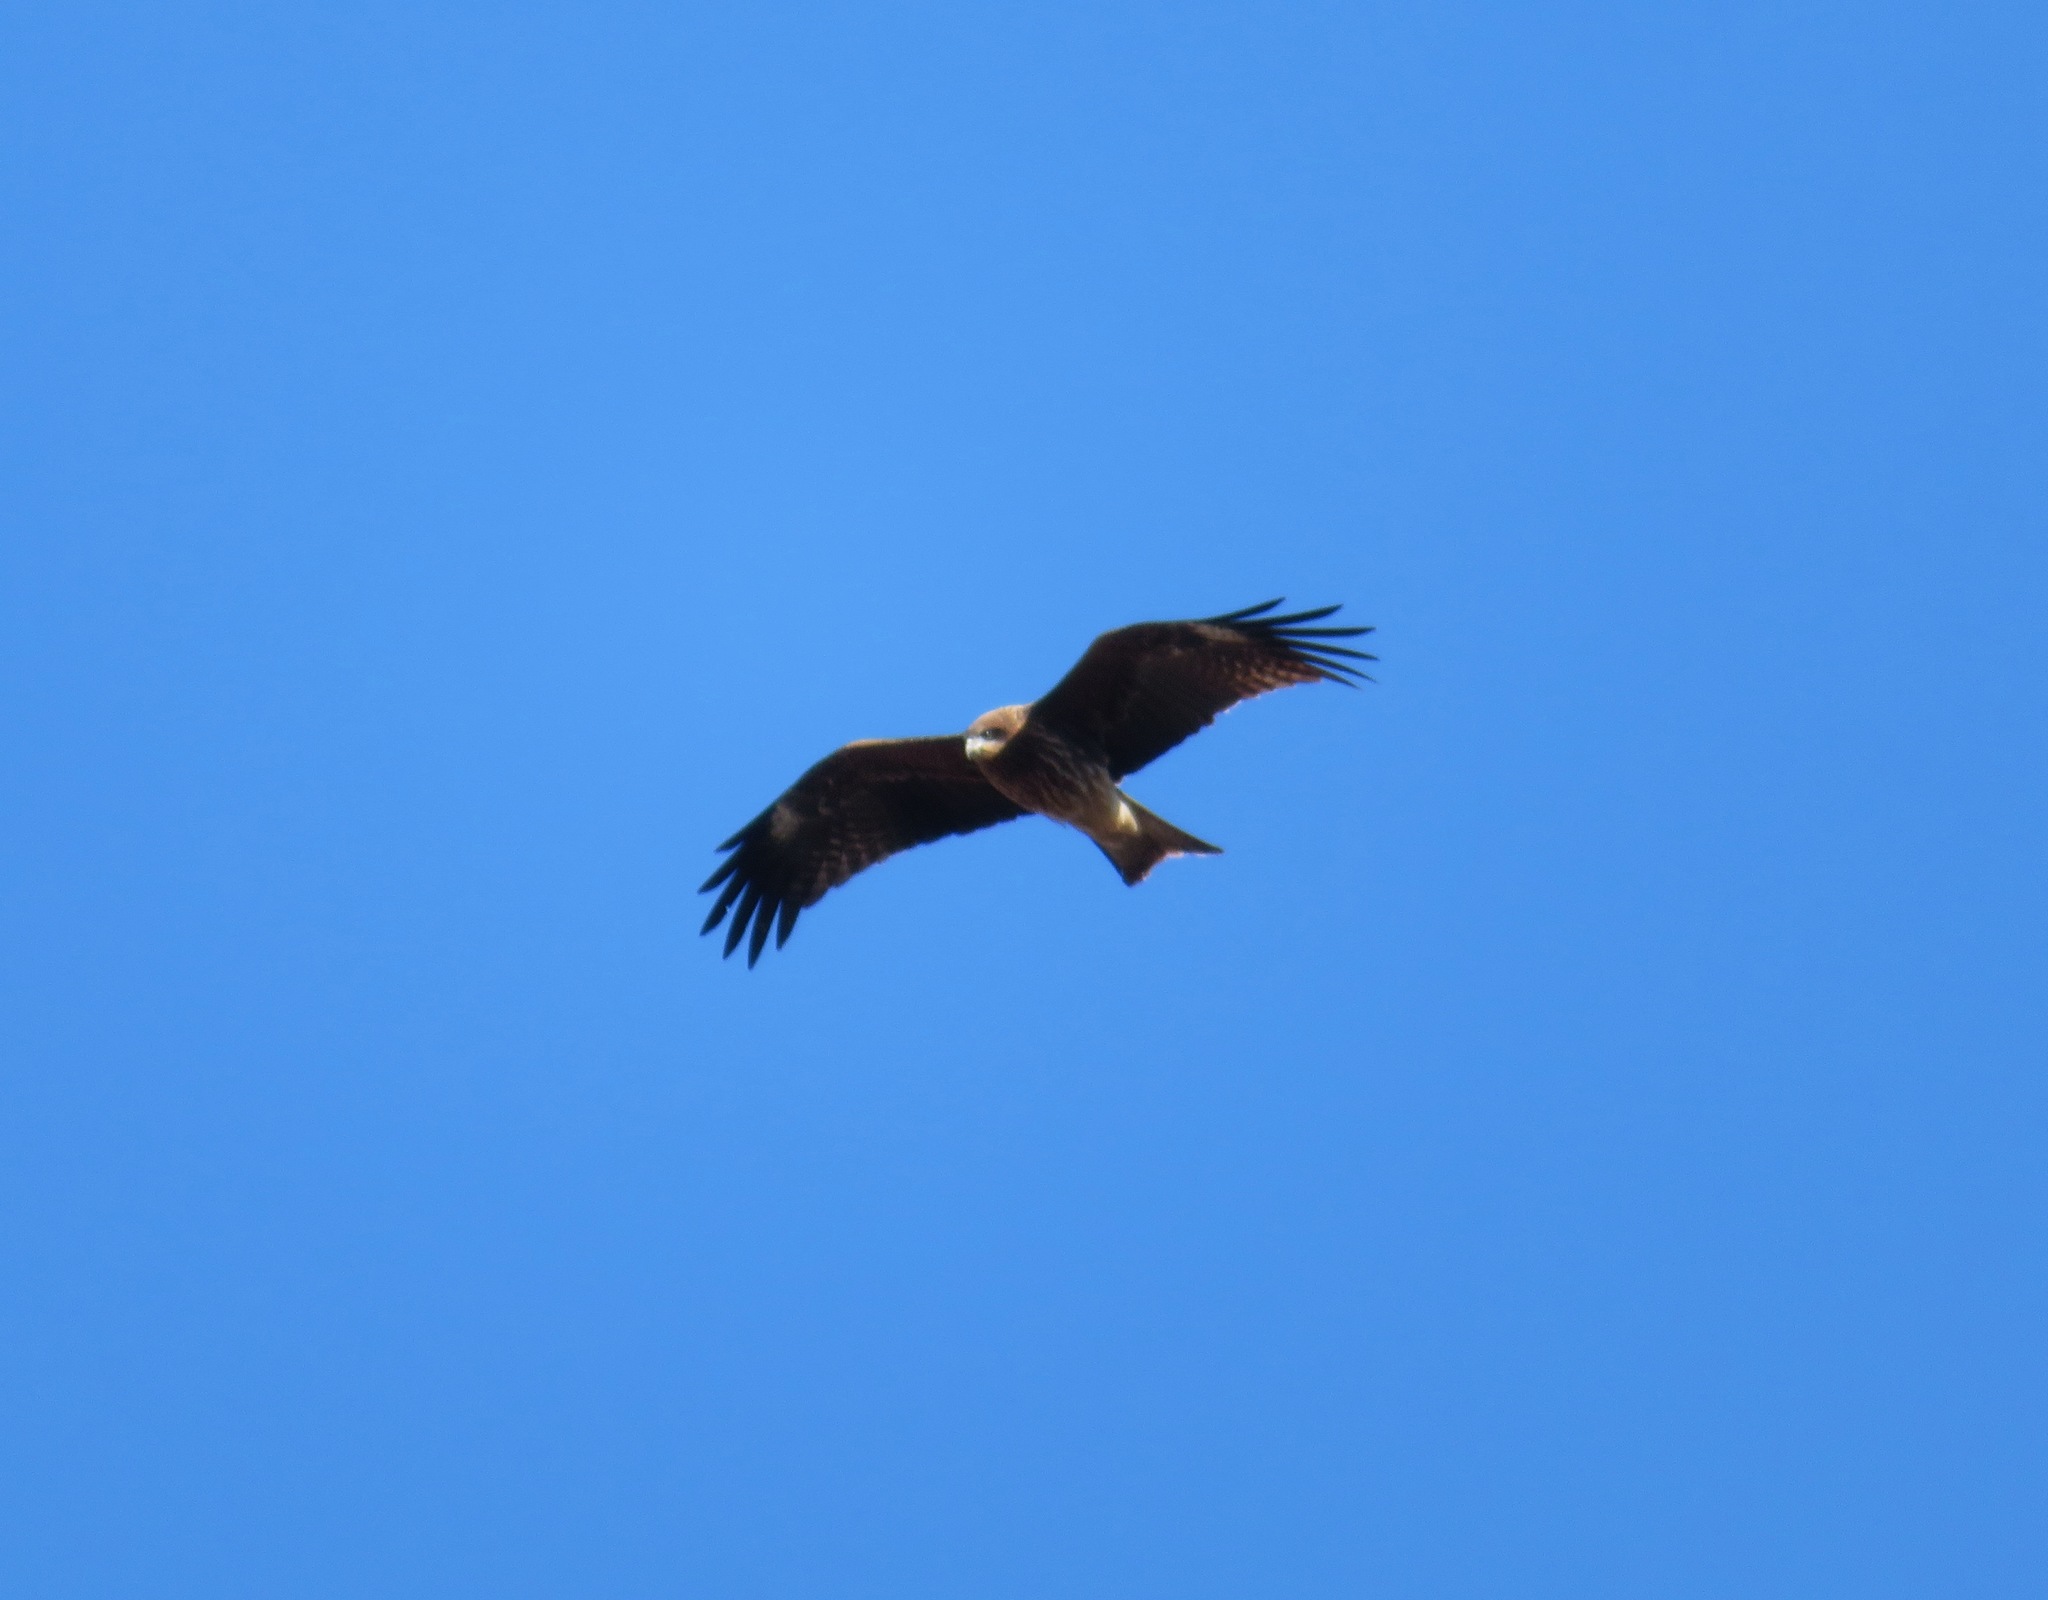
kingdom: Animalia
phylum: Chordata
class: Aves
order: Accipitriformes
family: Accipitridae
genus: Milvus
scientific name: Milvus migrans
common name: Black kite
